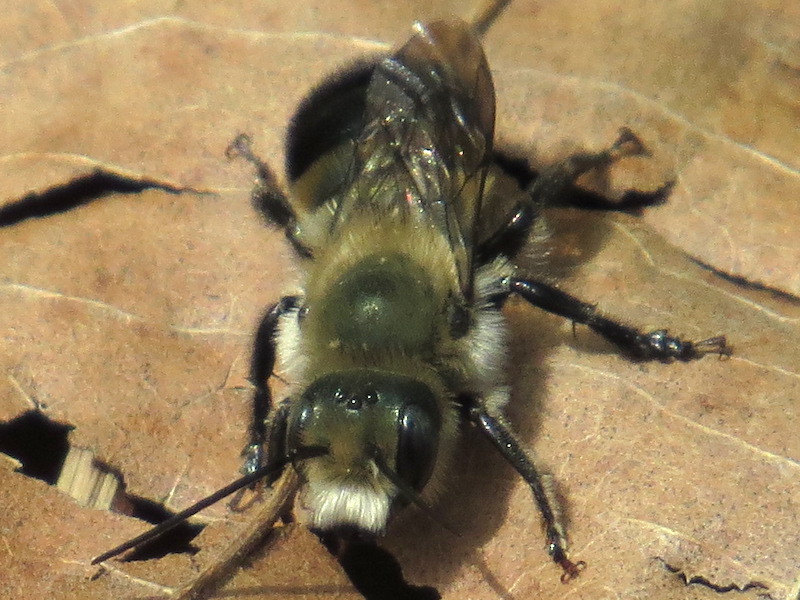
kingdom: Animalia
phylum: Arthropoda
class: Insecta
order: Hymenoptera
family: Megachilidae
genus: Osmia
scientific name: Osmia bucephala
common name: Bufflehead mason bee
